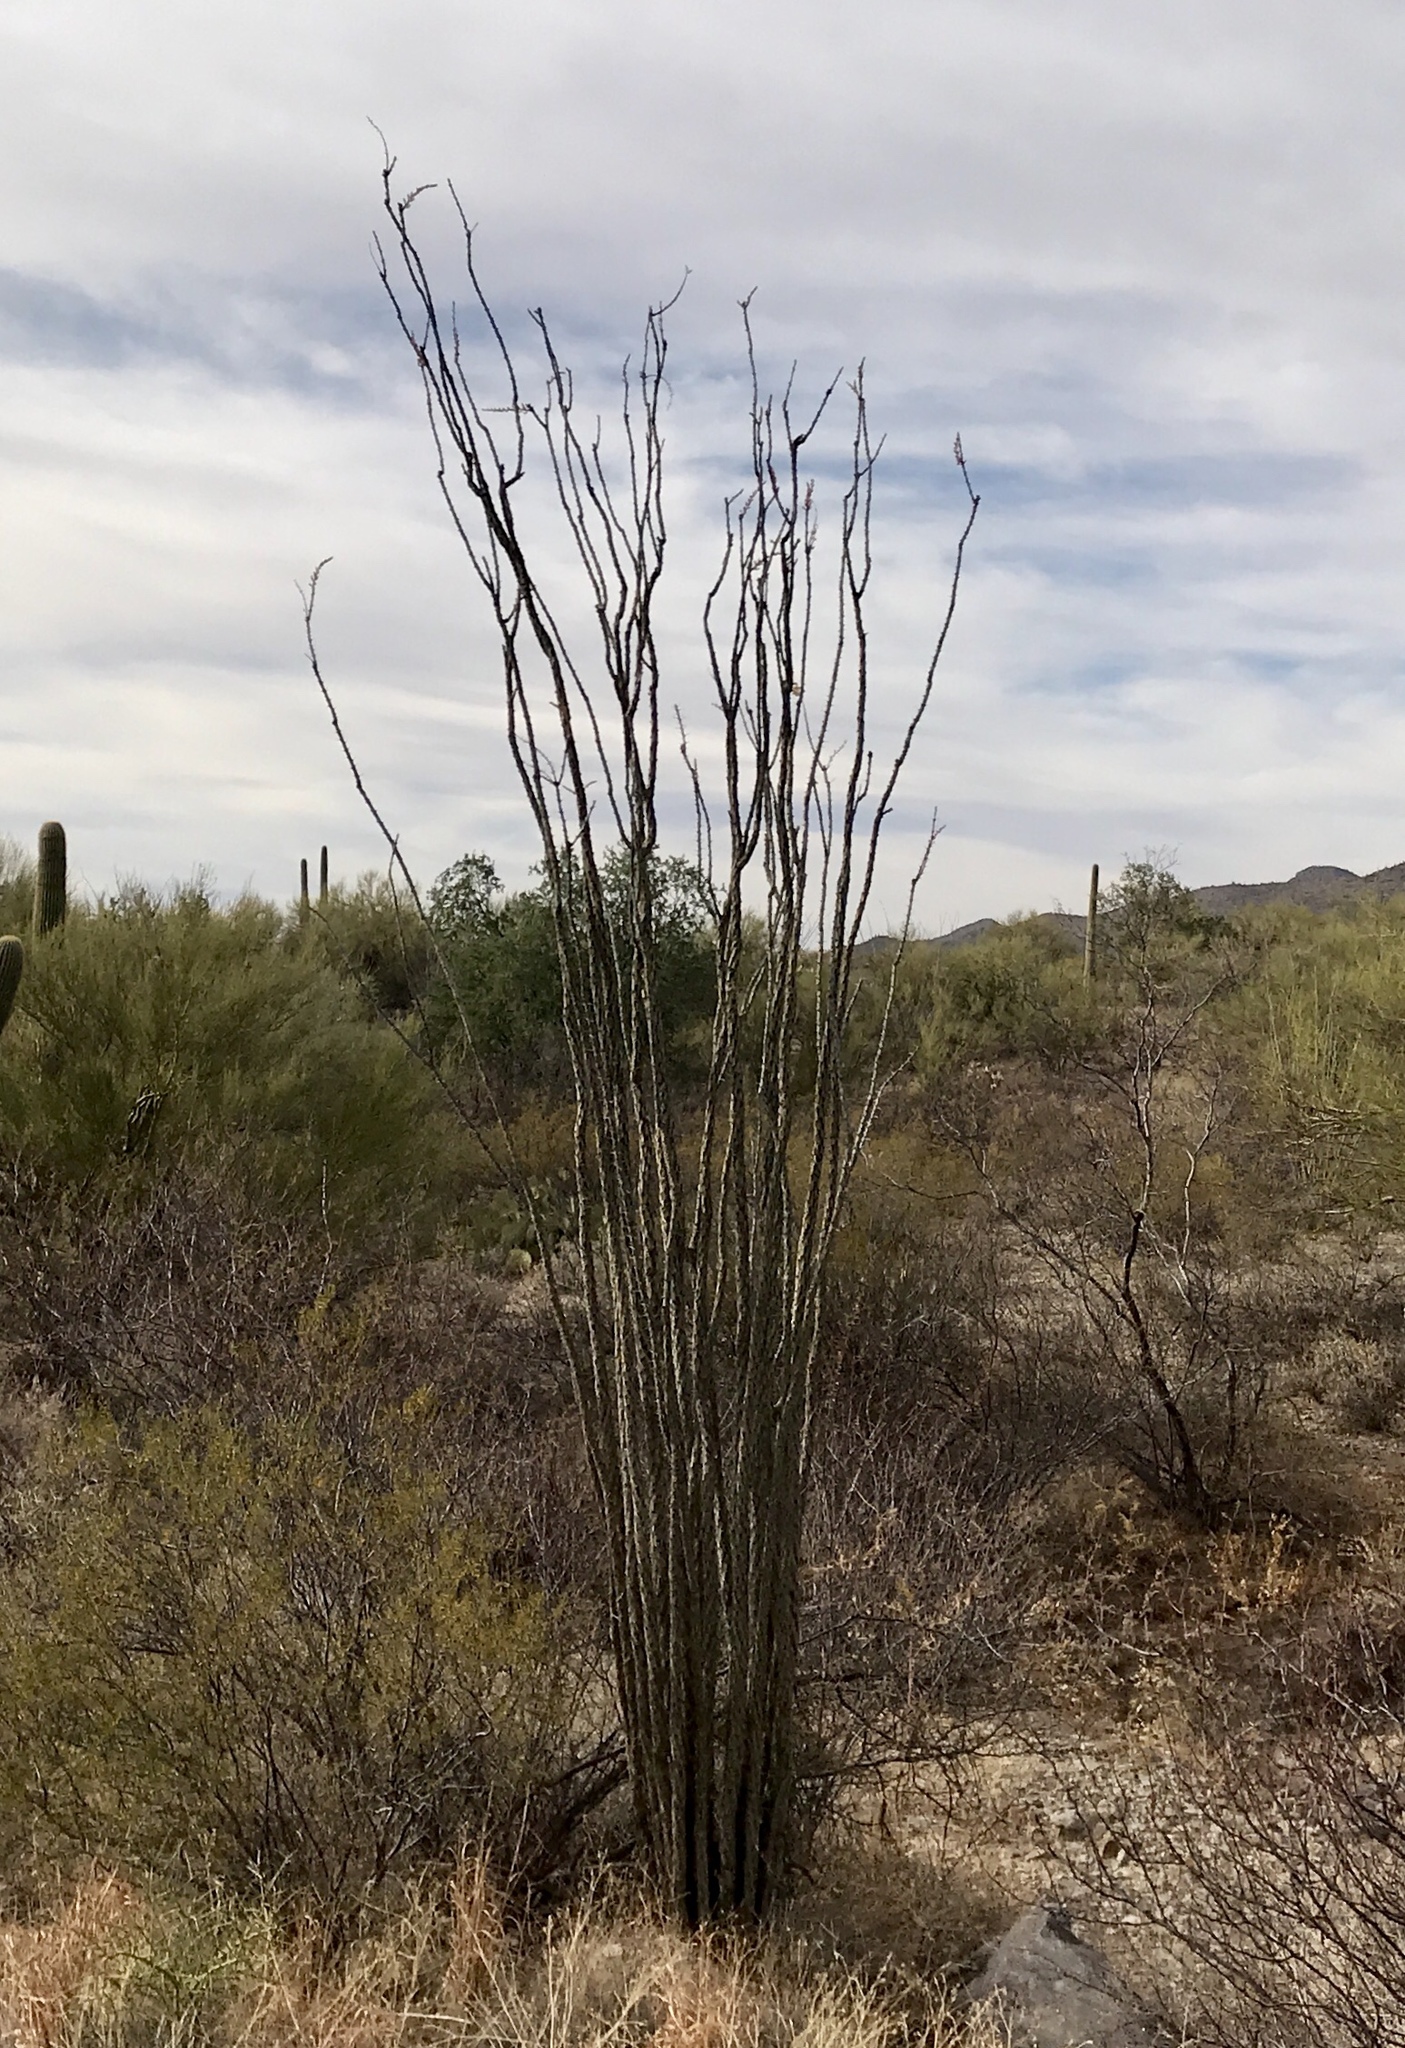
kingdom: Plantae
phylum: Tracheophyta
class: Magnoliopsida
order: Ericales
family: Fouquieriaceae
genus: Fouquieria
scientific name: Fouquieria splendens
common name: Vine-cactus
